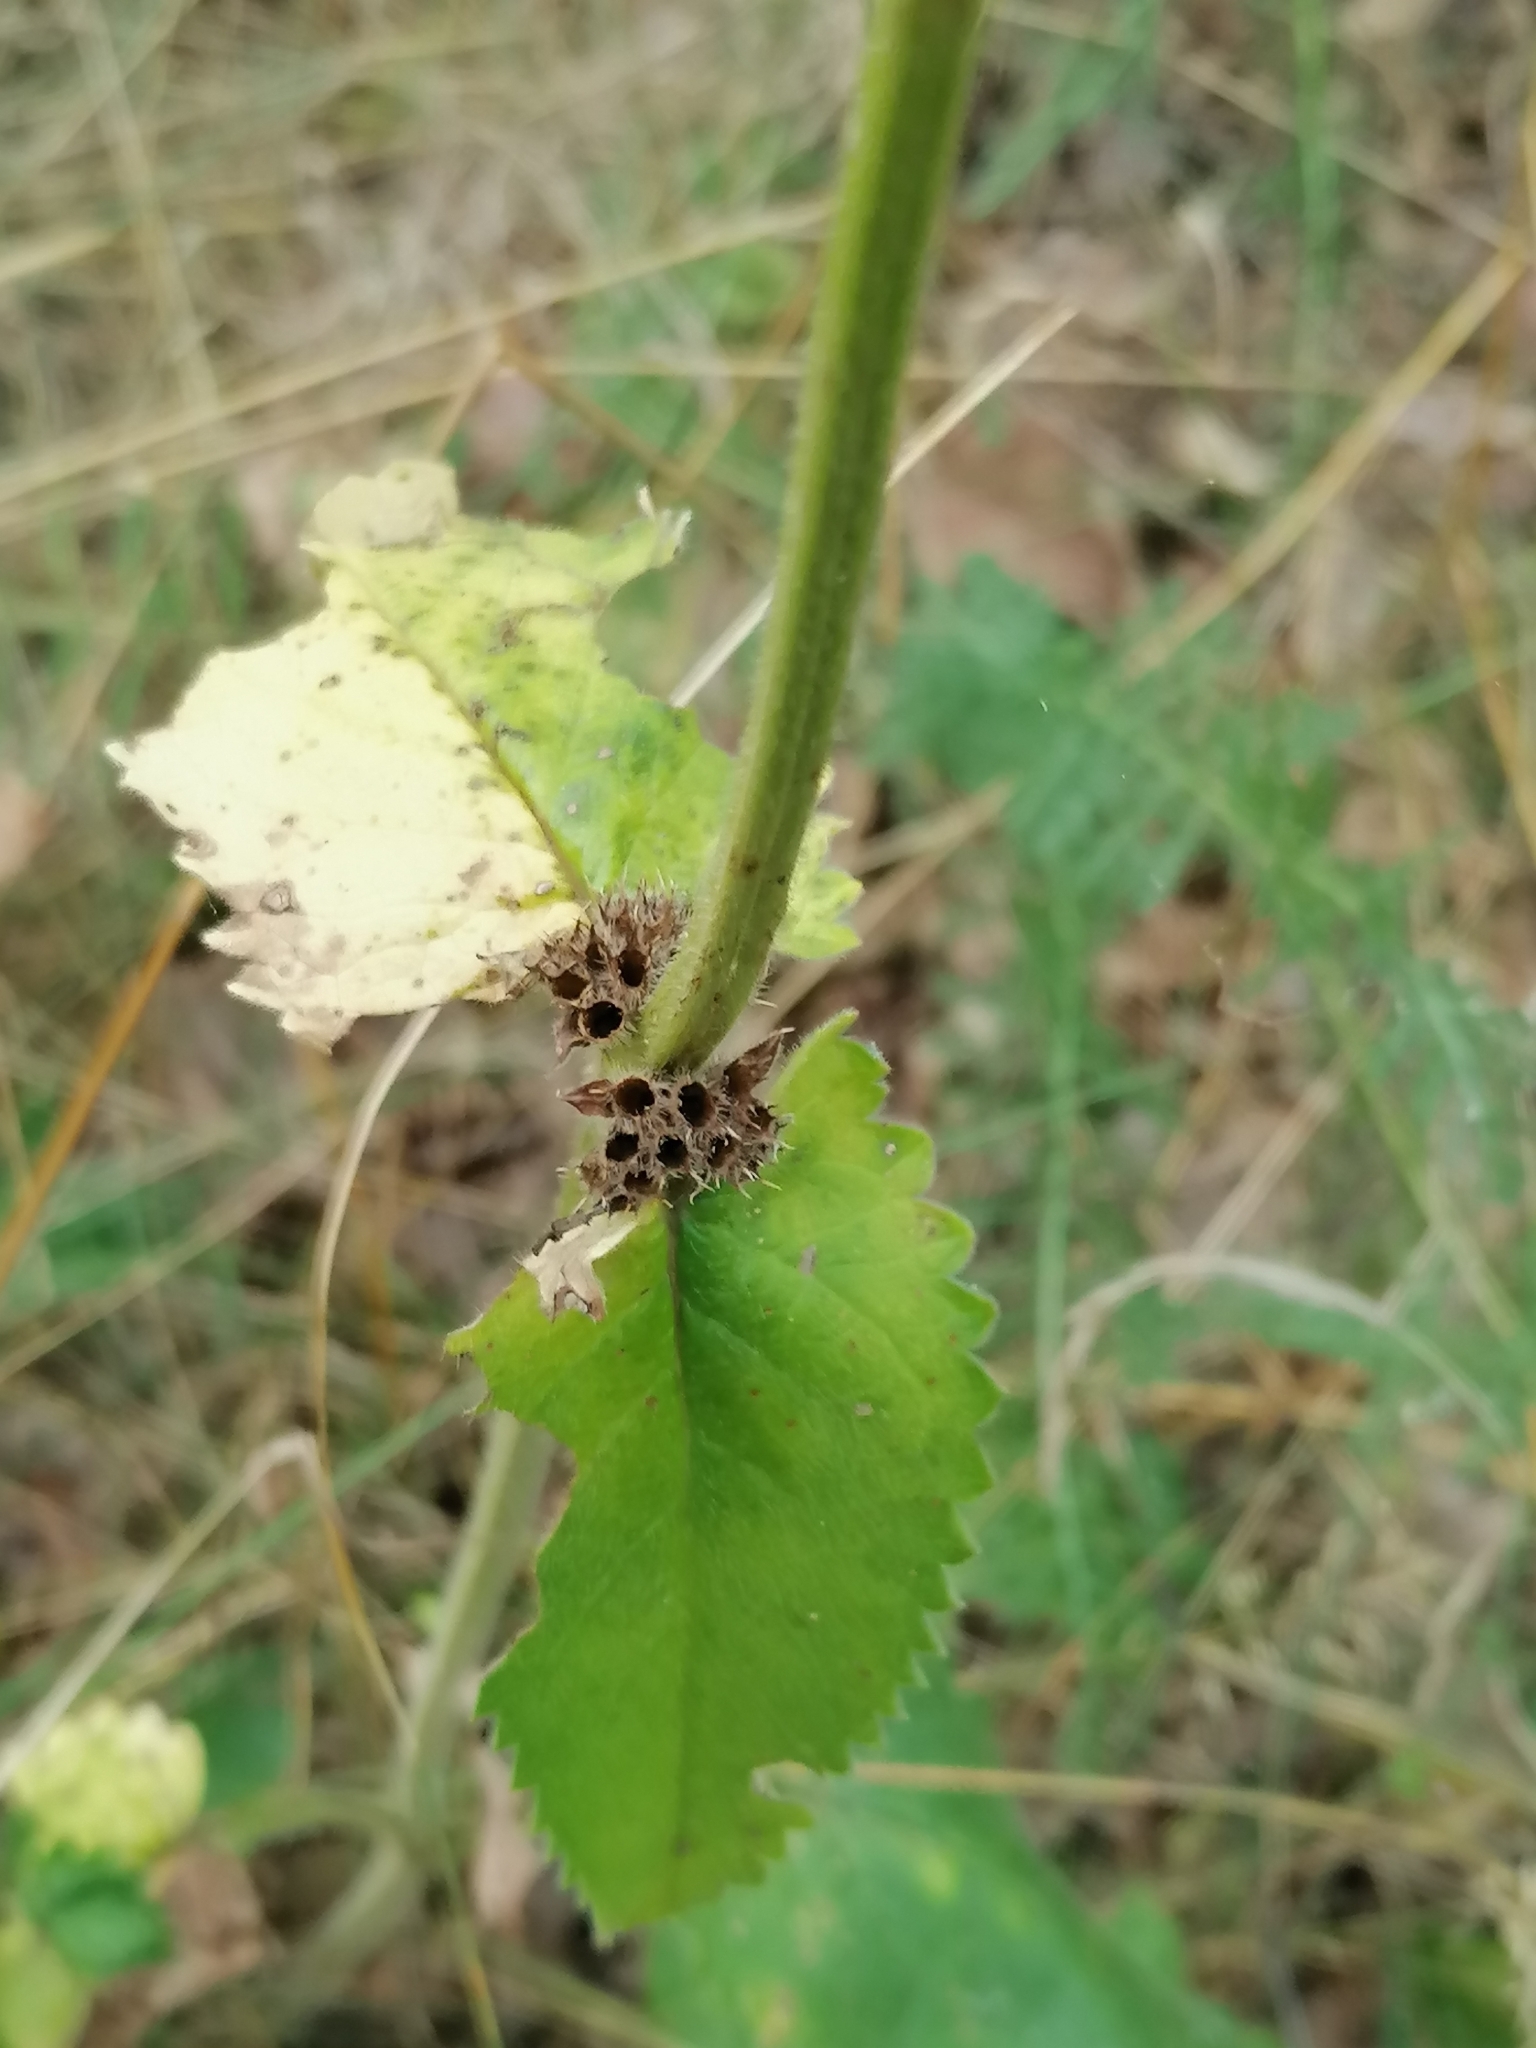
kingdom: Plantae
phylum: Tracheophyta
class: Magnoliopsida
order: Lamiales
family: Lamiaceae
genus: Betonica
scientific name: Betonica officinalis
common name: Bishop's-wort
